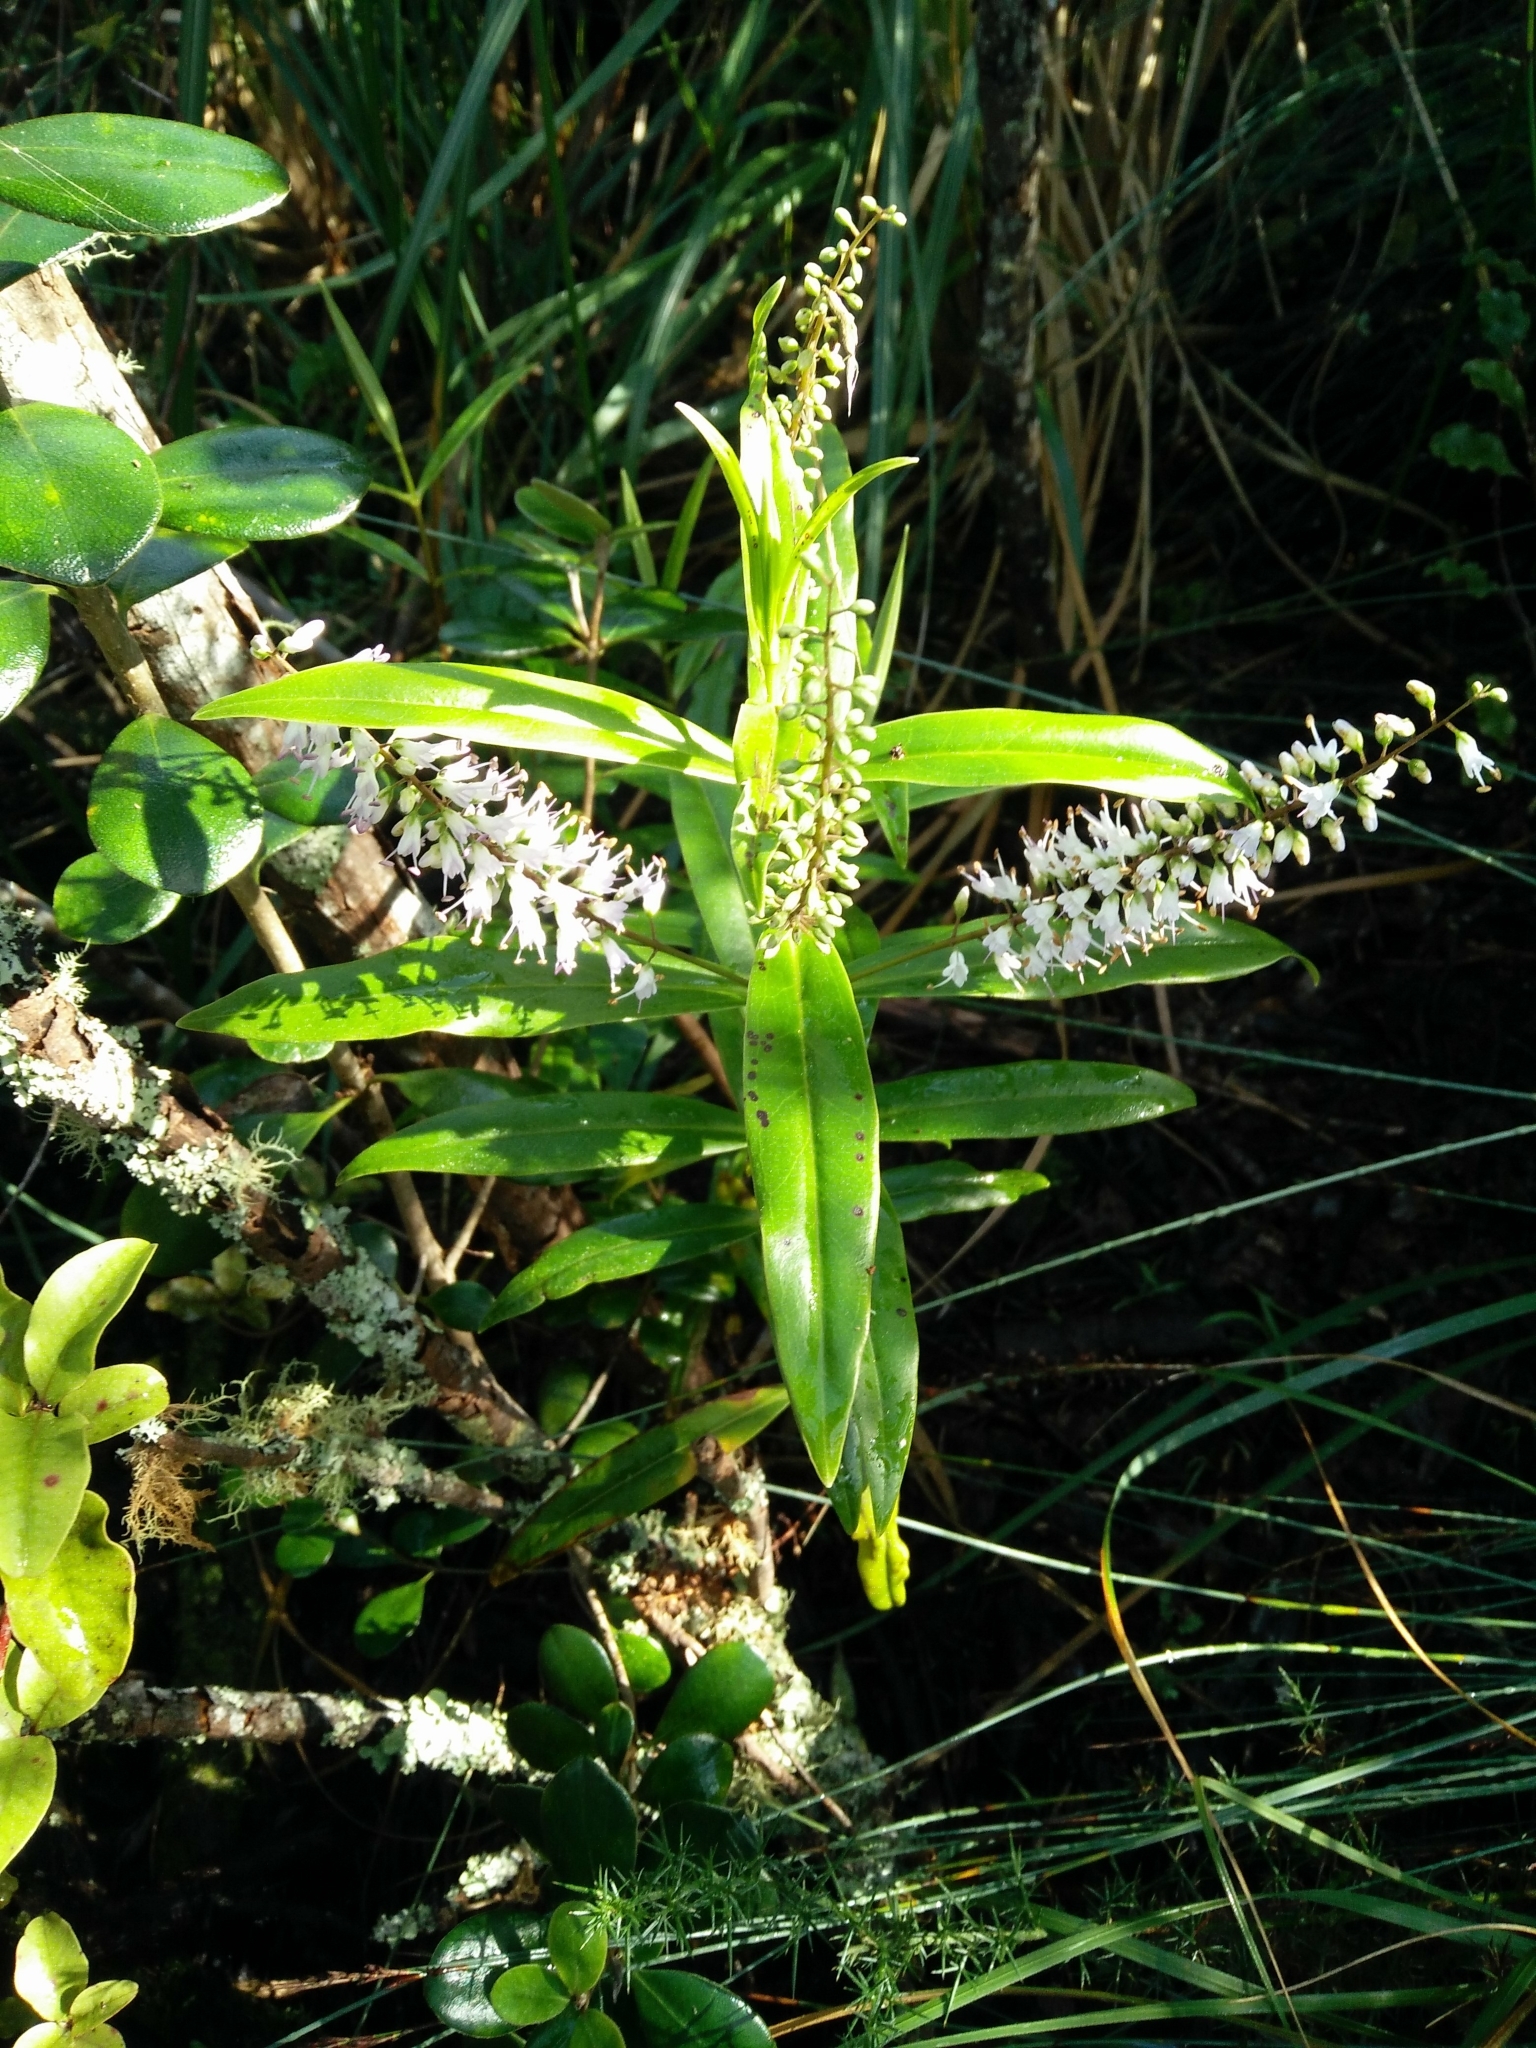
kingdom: Plantae
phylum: Tracheophyta
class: Magnoliopsida
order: Lamiales
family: Plantaginaceae
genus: Veronica
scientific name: Veronica stricta
